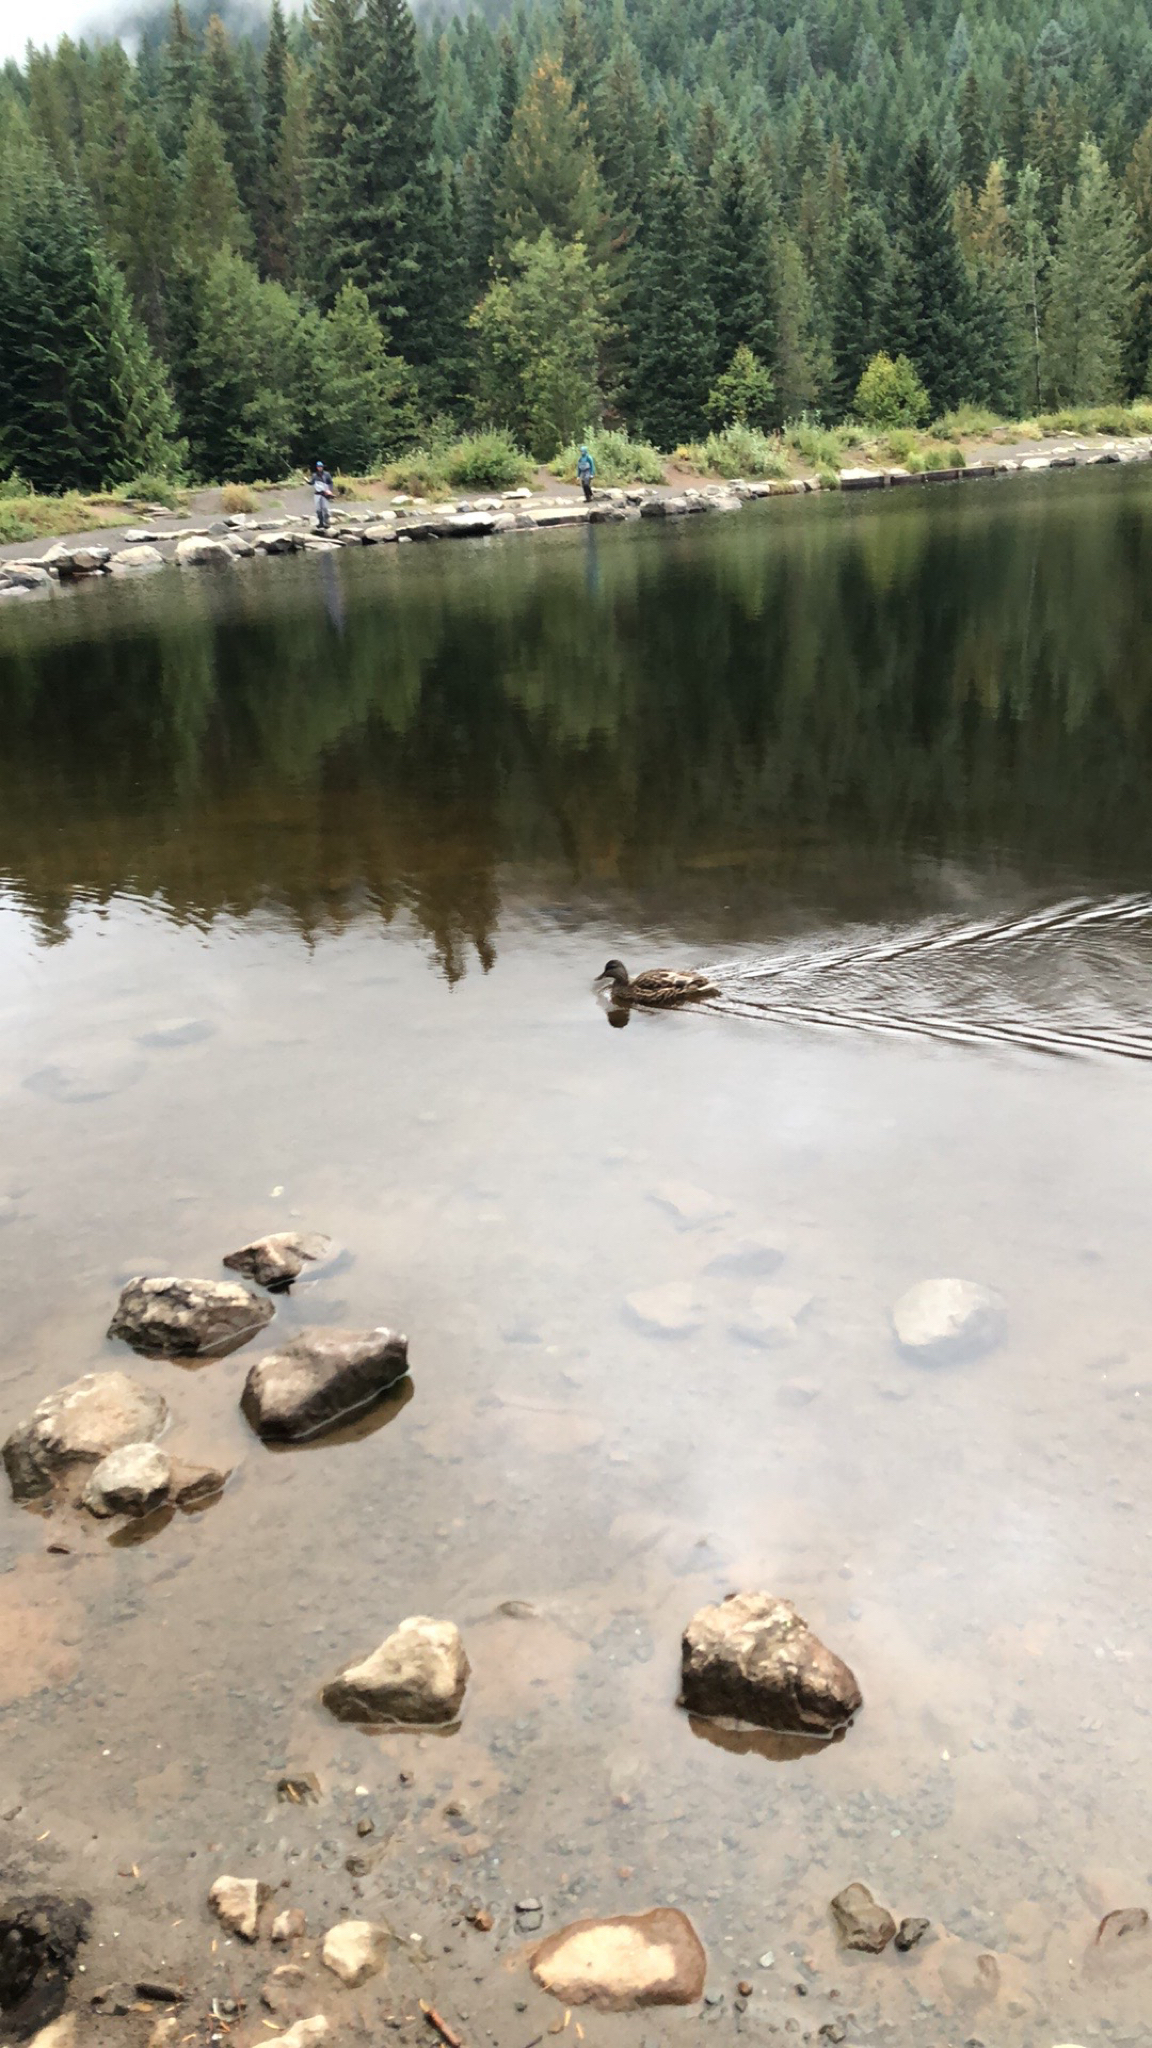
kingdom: Animalia
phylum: Chordata
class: Aves
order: Anseriformes
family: Anatidae
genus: Anas
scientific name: Anas platyrhynchos
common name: Mallard
